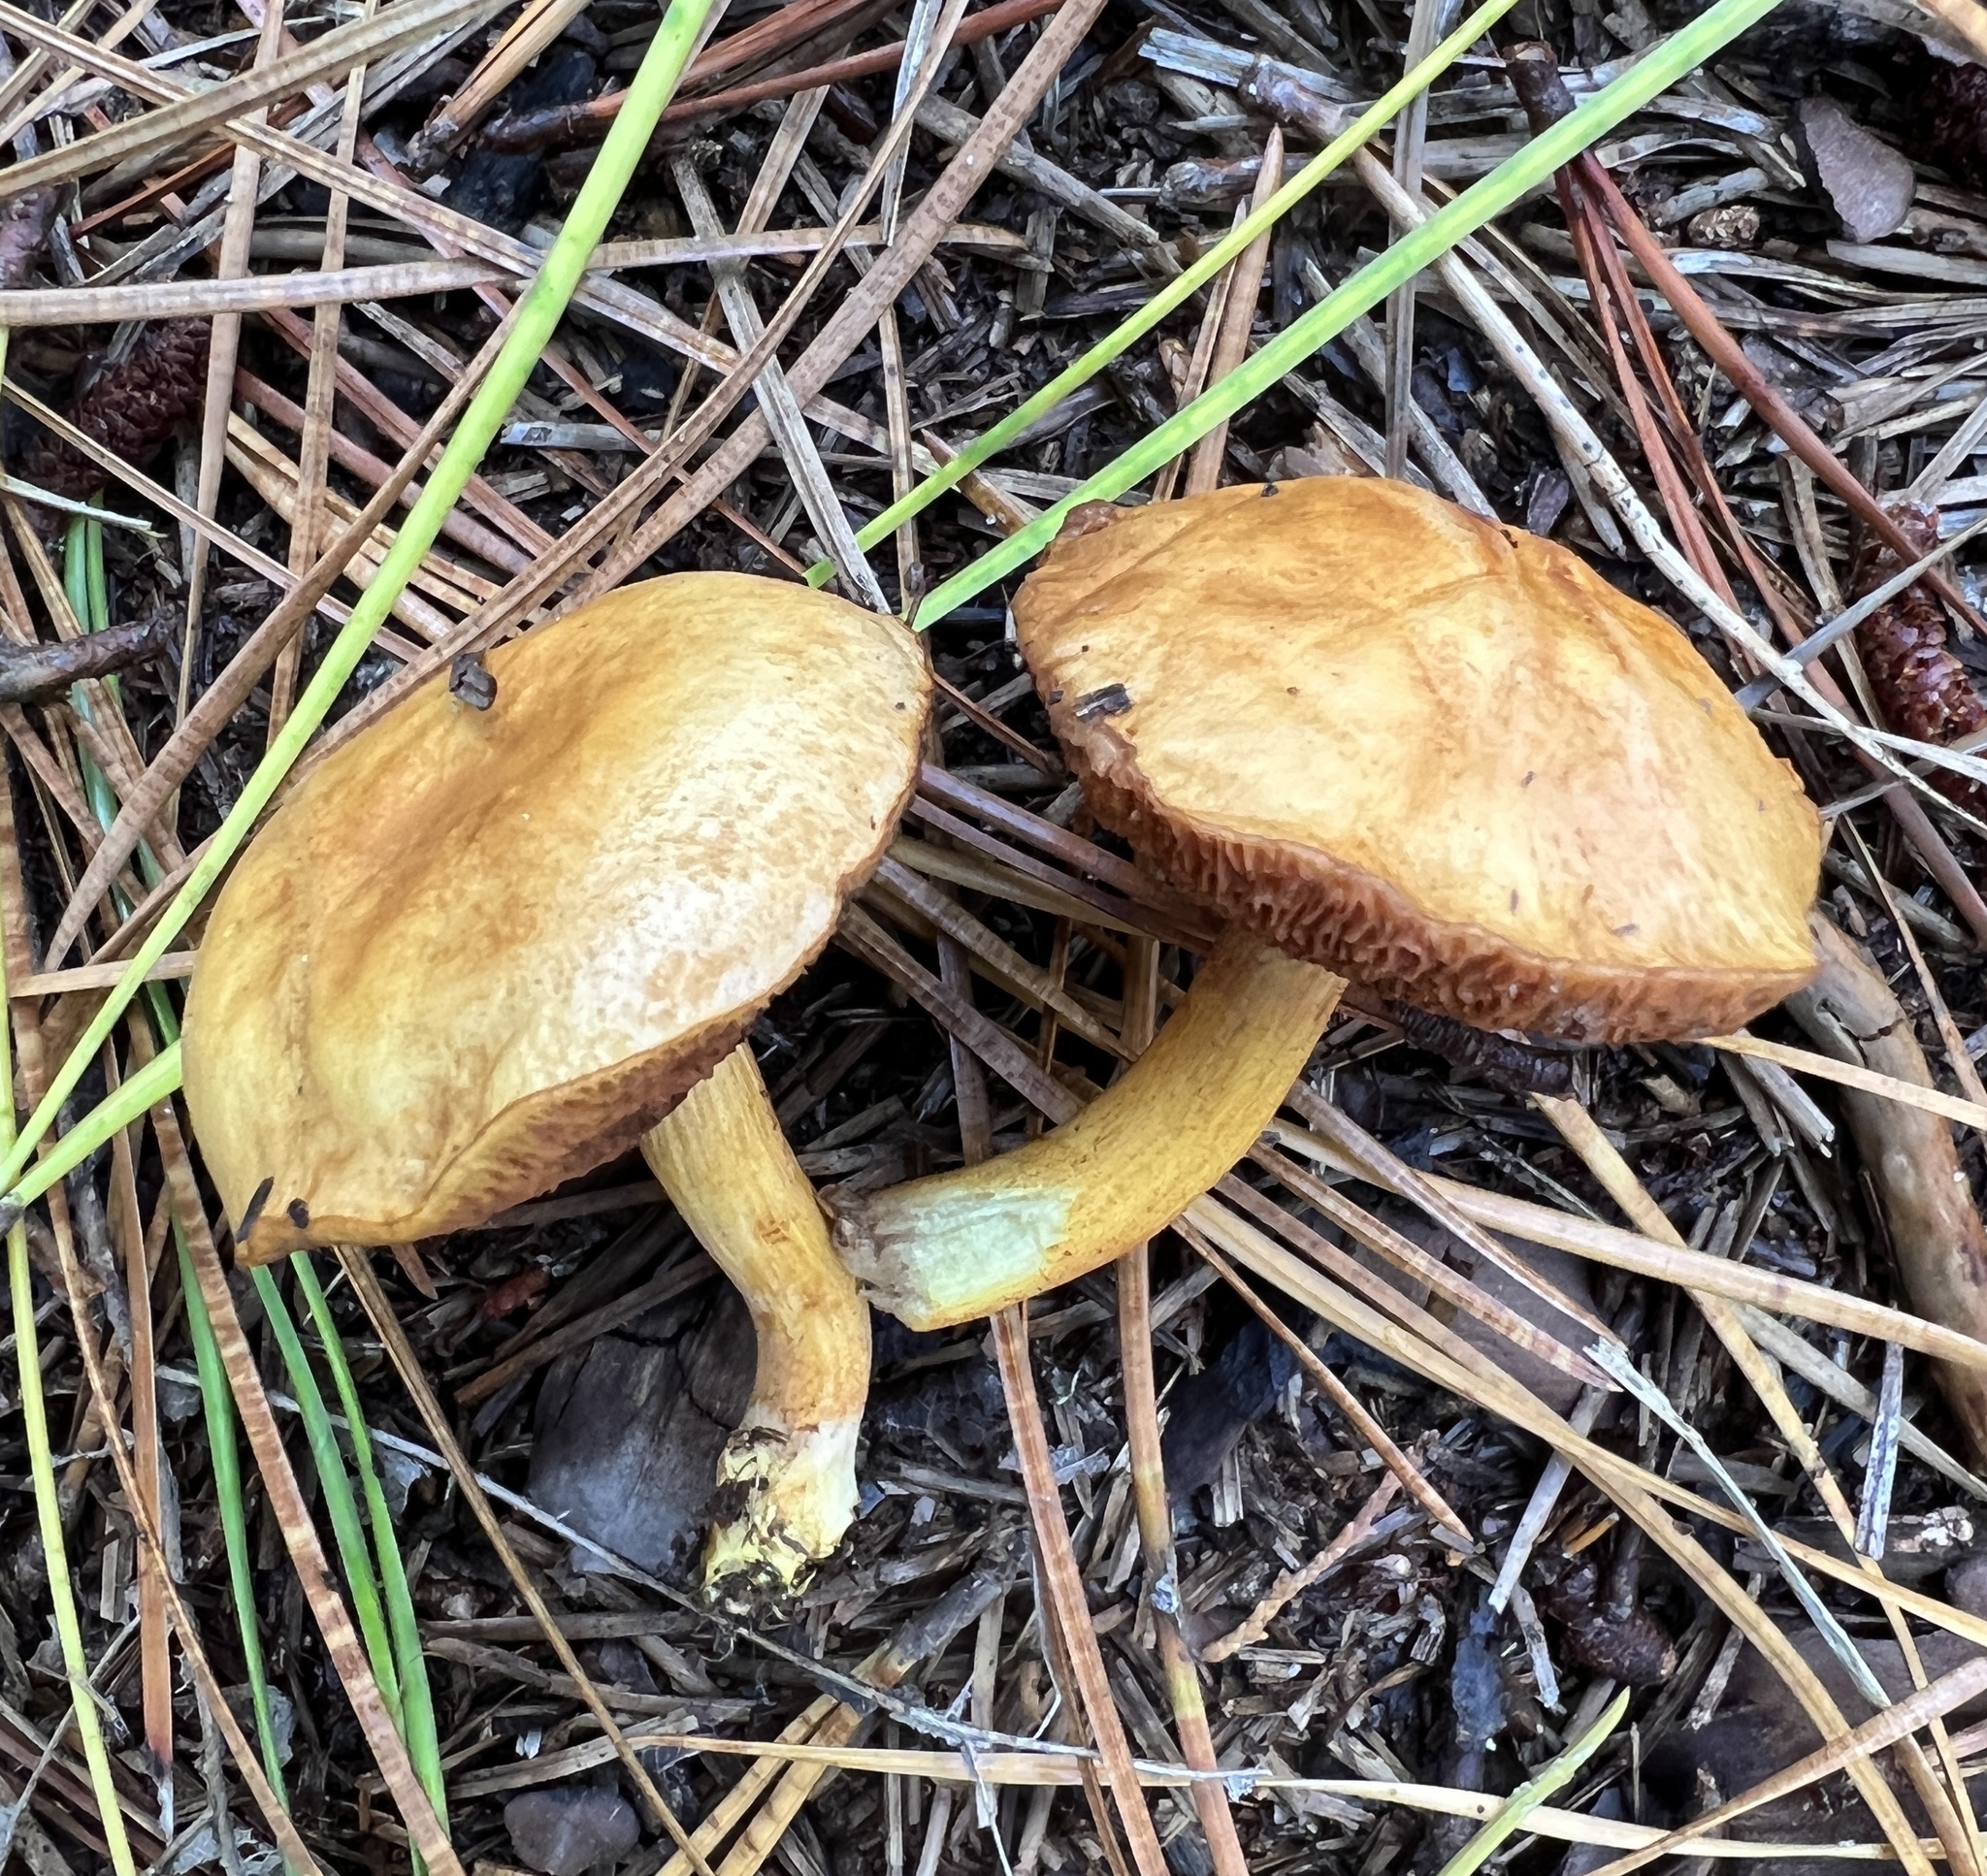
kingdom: Fungi
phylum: Basidiomycota
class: Agaricomycetes
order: Boletales
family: Boletaceae
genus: Chalciporus
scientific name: Chalciporus piperatus
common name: Peppery bolete
